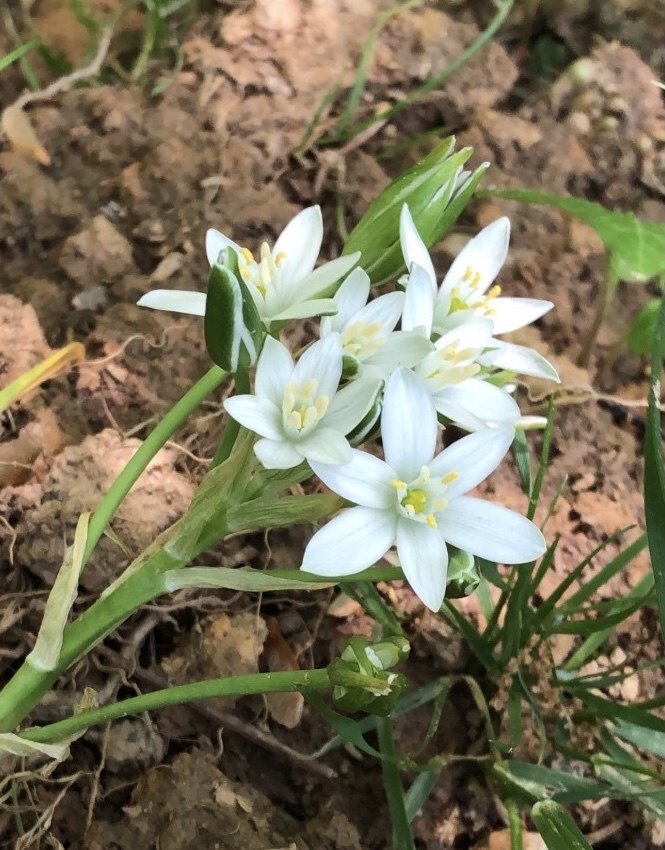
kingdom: Plantae
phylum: Tracheophyta
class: Liliopsida
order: Asparagales
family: Asparagaceae
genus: Ornithogalum
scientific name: Ornithogalum umbellatum
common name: Garden star-of-bethlehem
